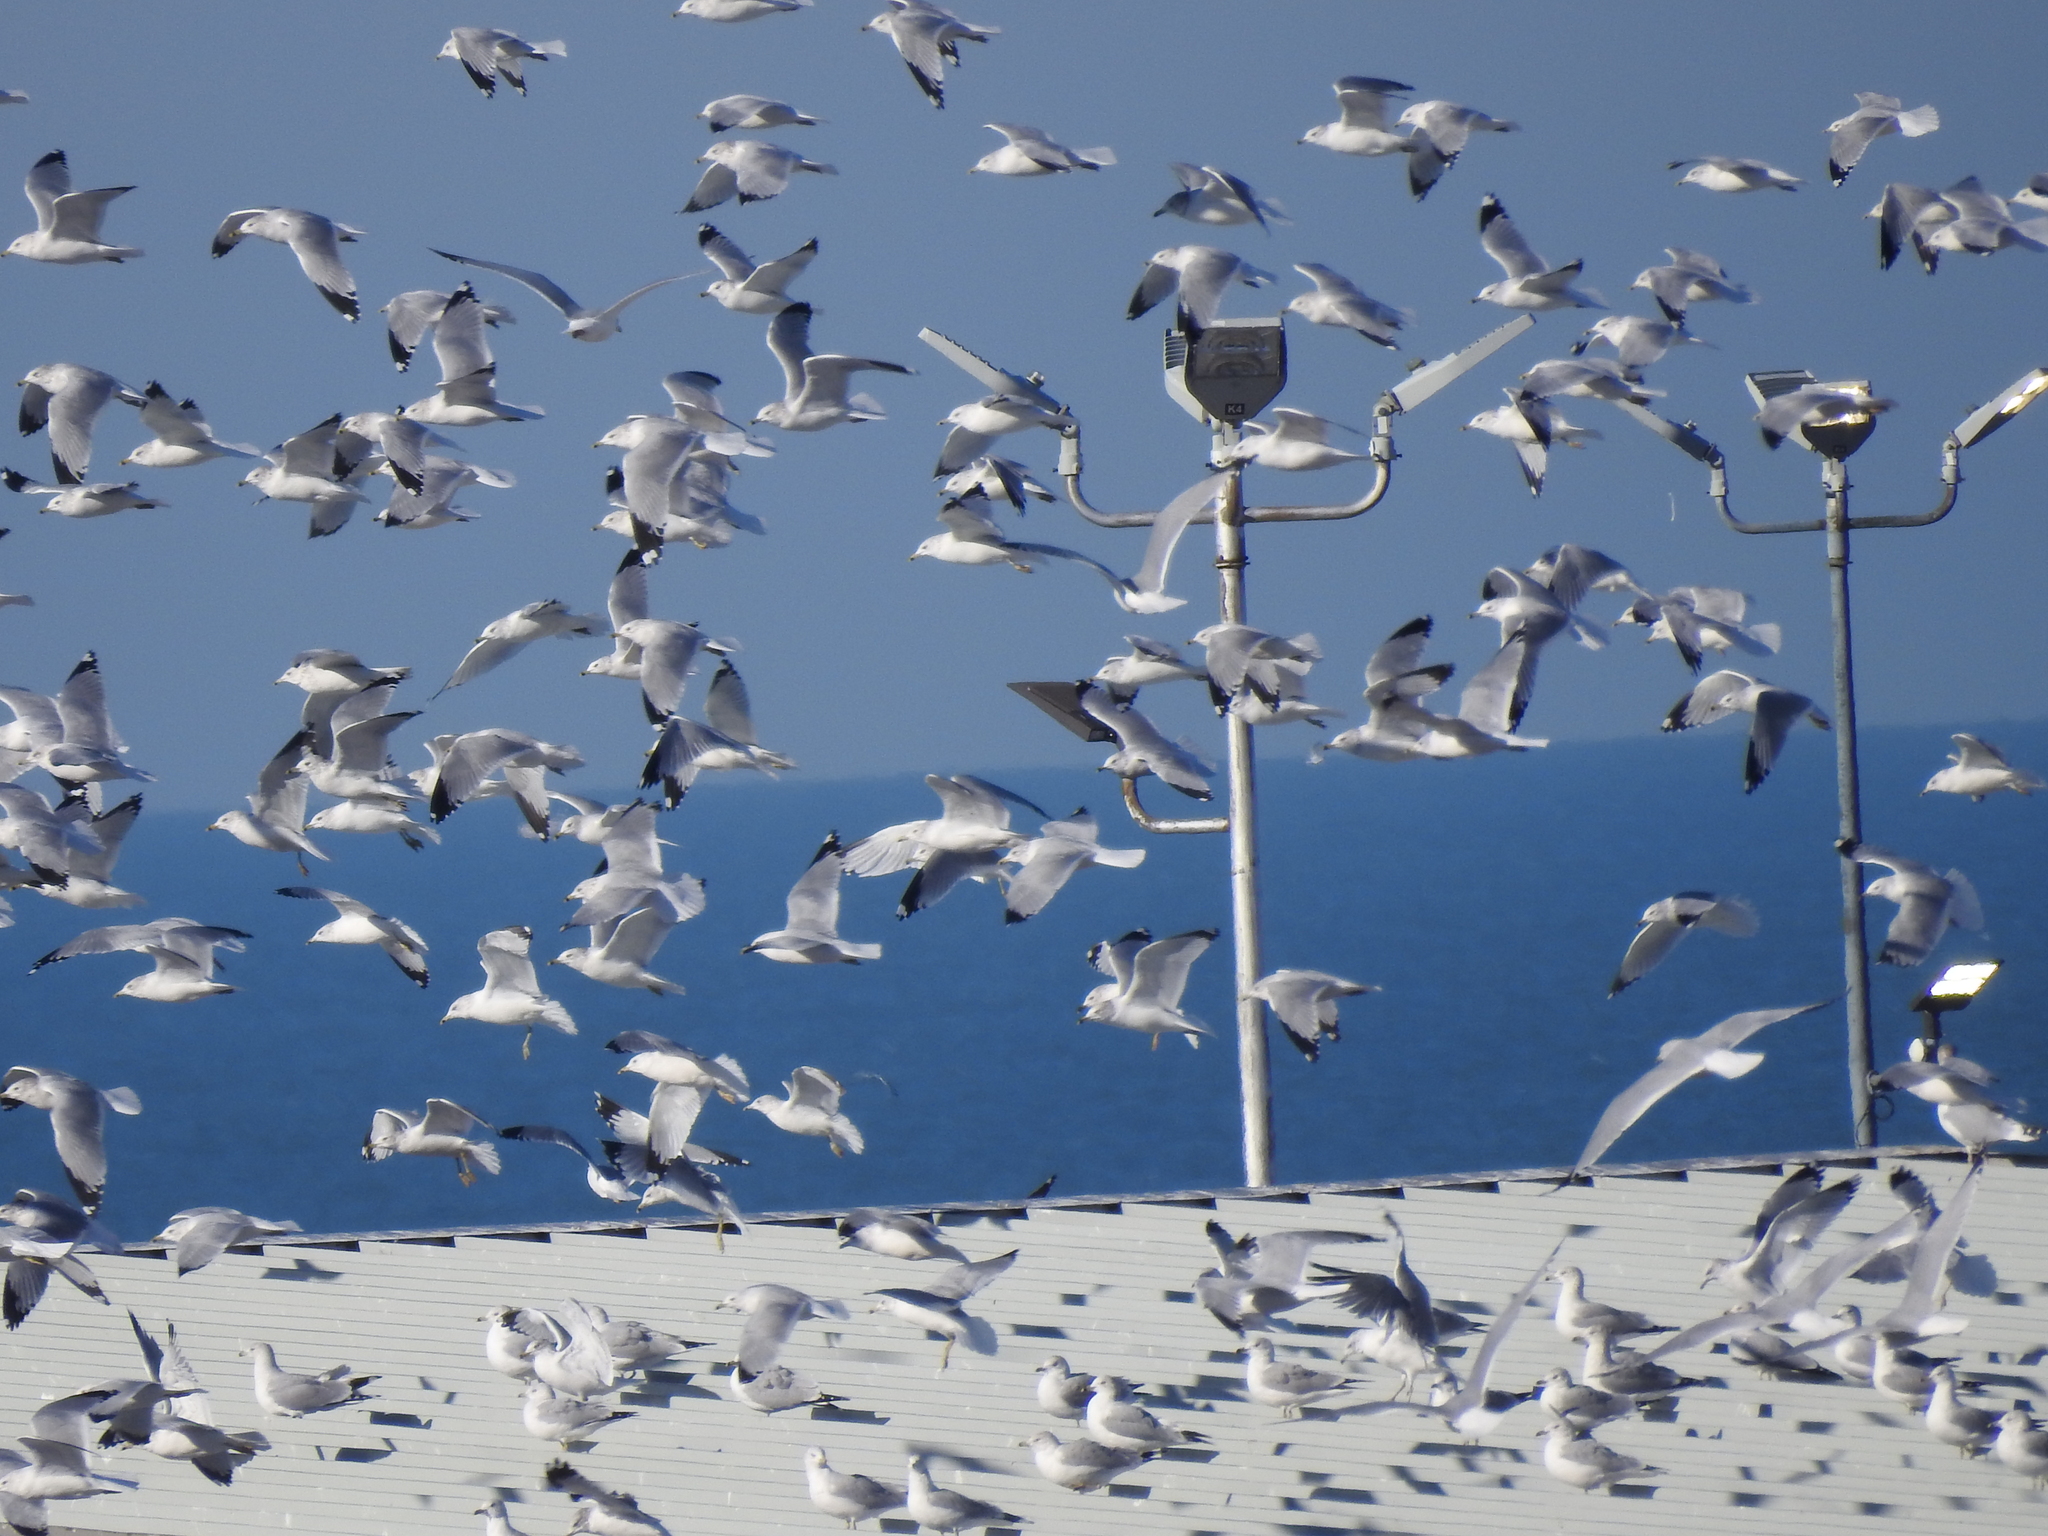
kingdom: Animalia
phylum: Chordata
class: Aves
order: Charadriiformes
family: Laridae
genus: Larus
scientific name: Larus delawarensis
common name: Ring-billed gull
